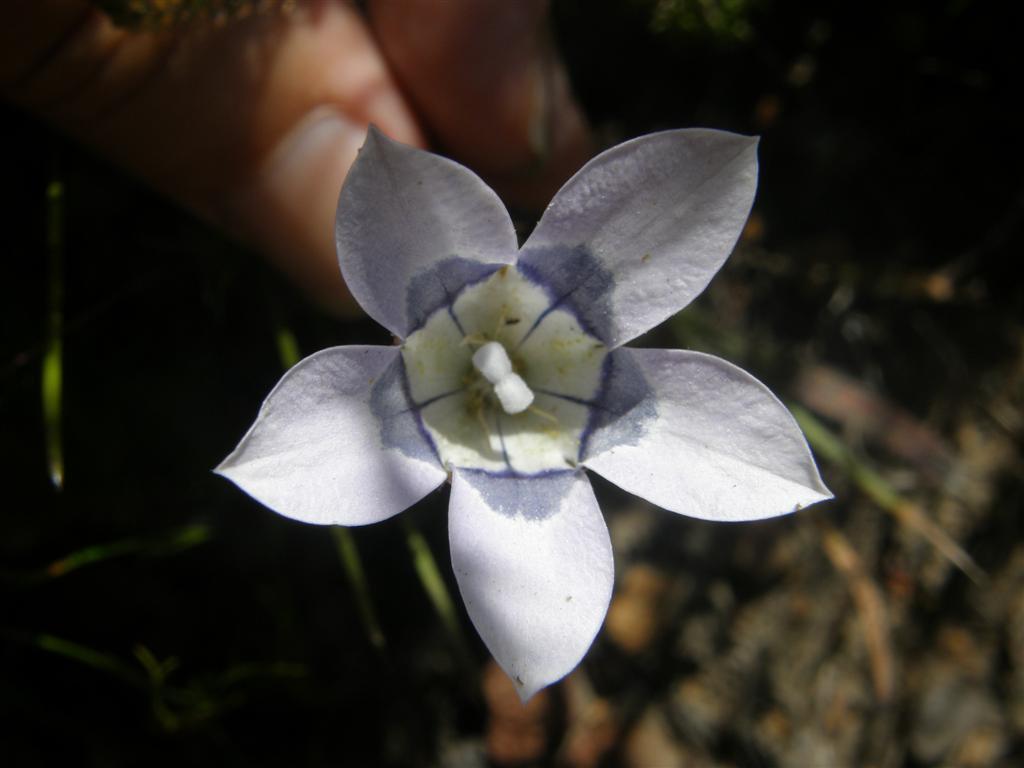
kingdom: Plantae
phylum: Tracheophyta
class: Magnoliopsida
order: Asterales
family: Campanulaceae
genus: Roella
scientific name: Roella incurva
